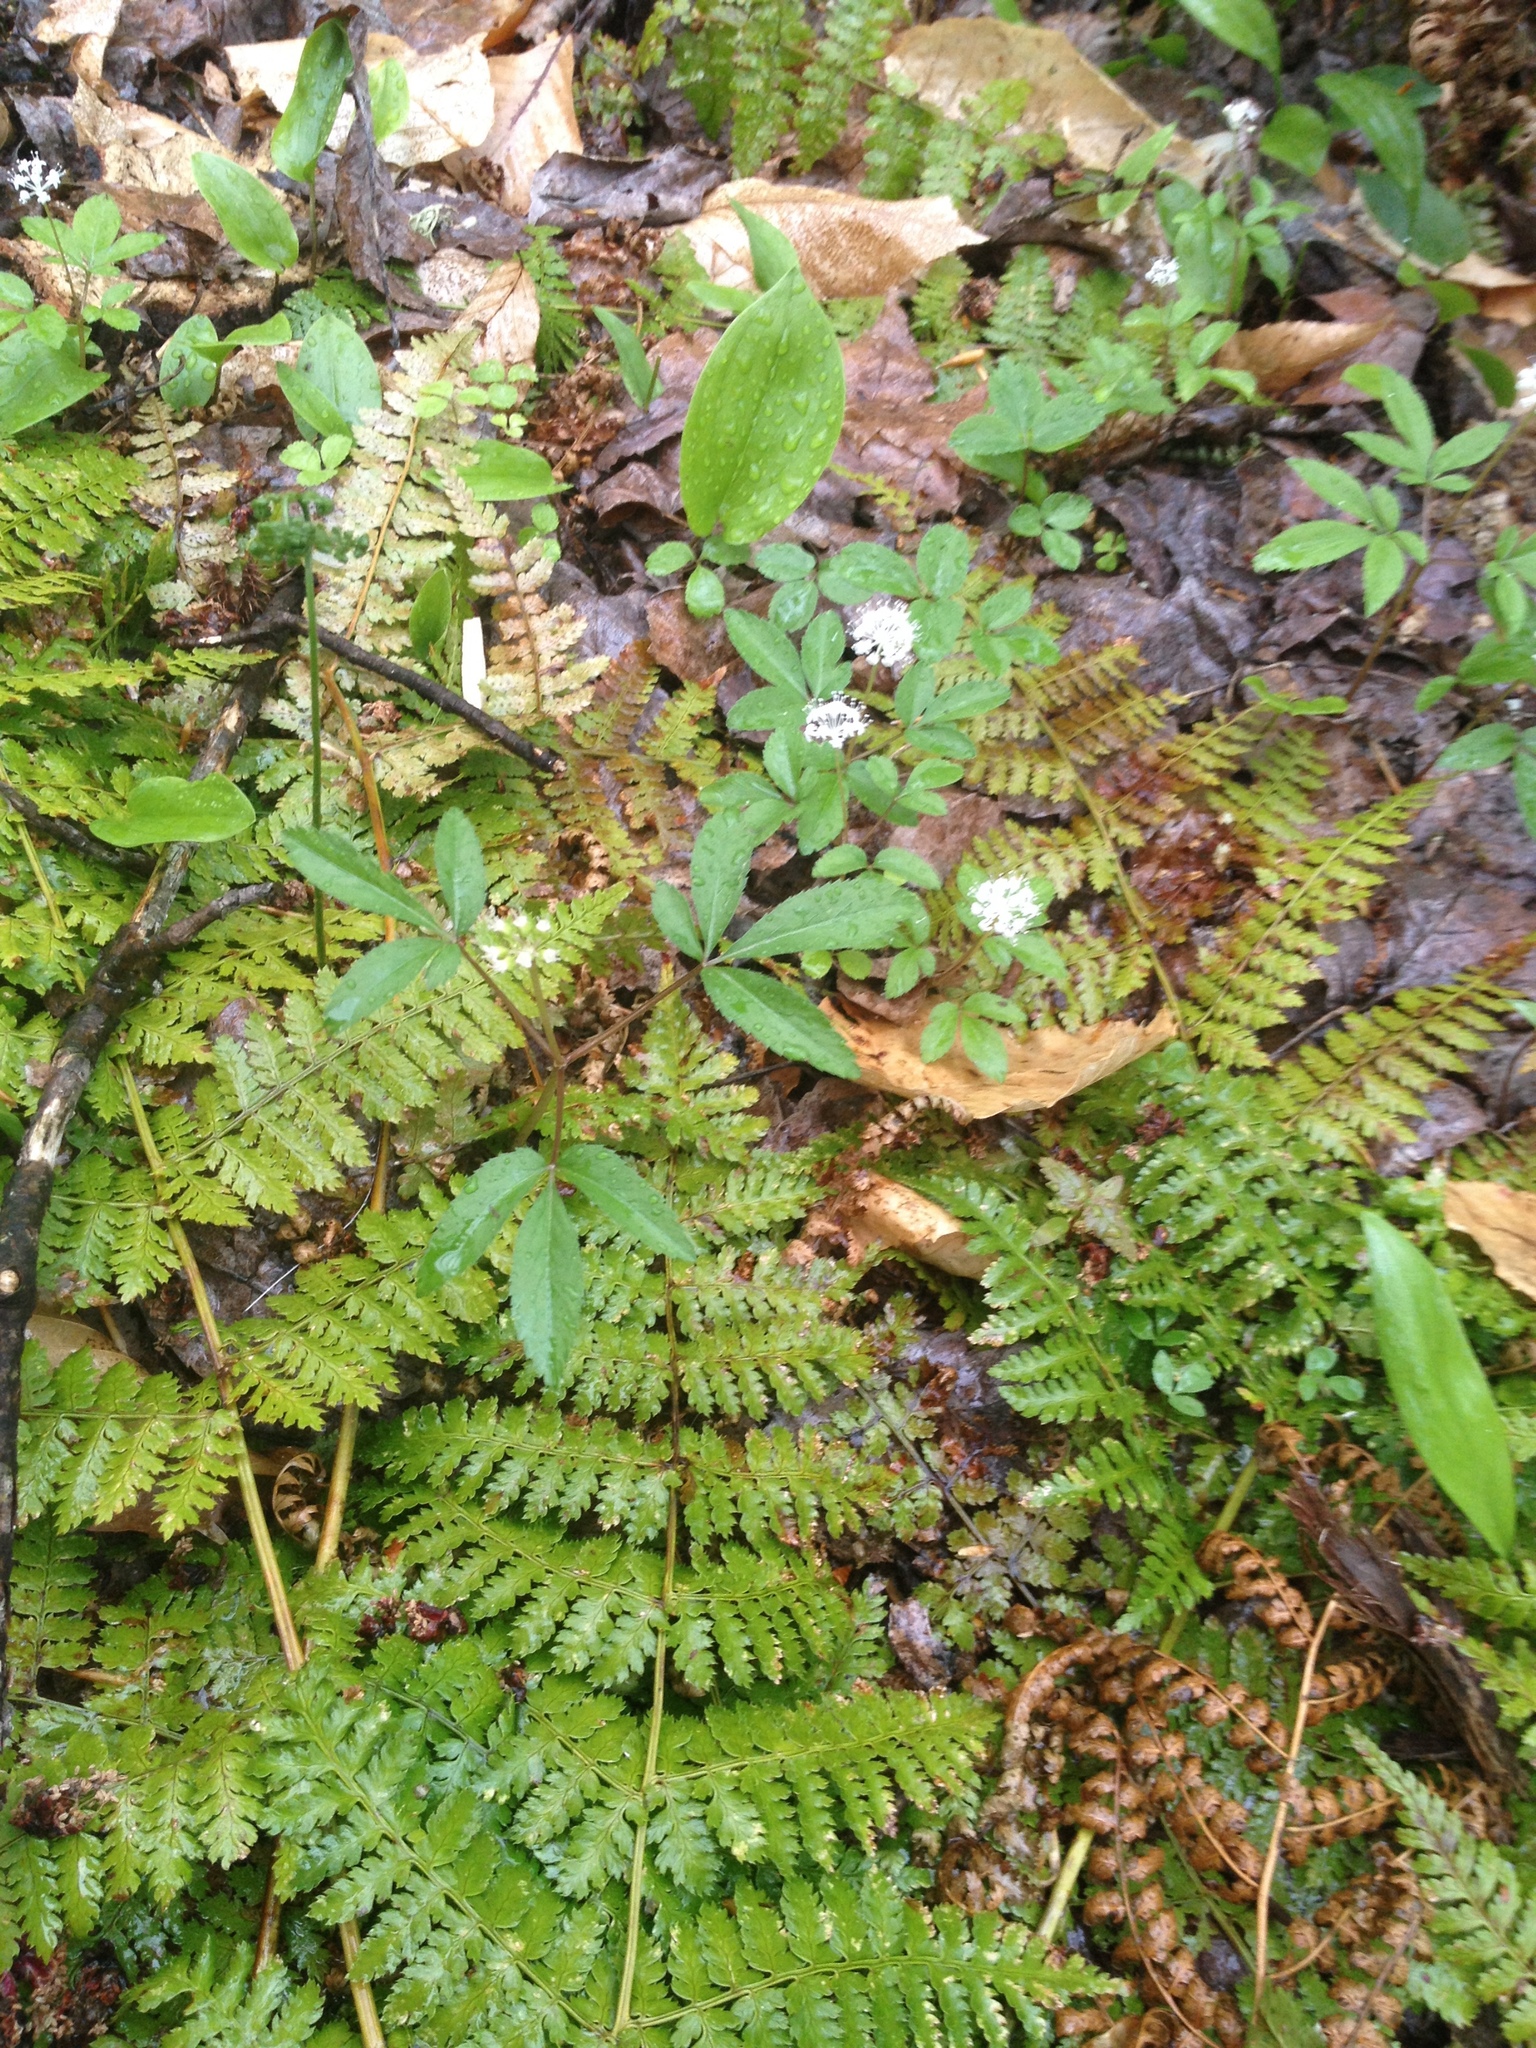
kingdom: Plantae
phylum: Tracheophyta
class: Magnoliopsida
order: Apiales
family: Araliaceae
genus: Panax
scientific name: Panax trifolius
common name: Dwarf ginseng
